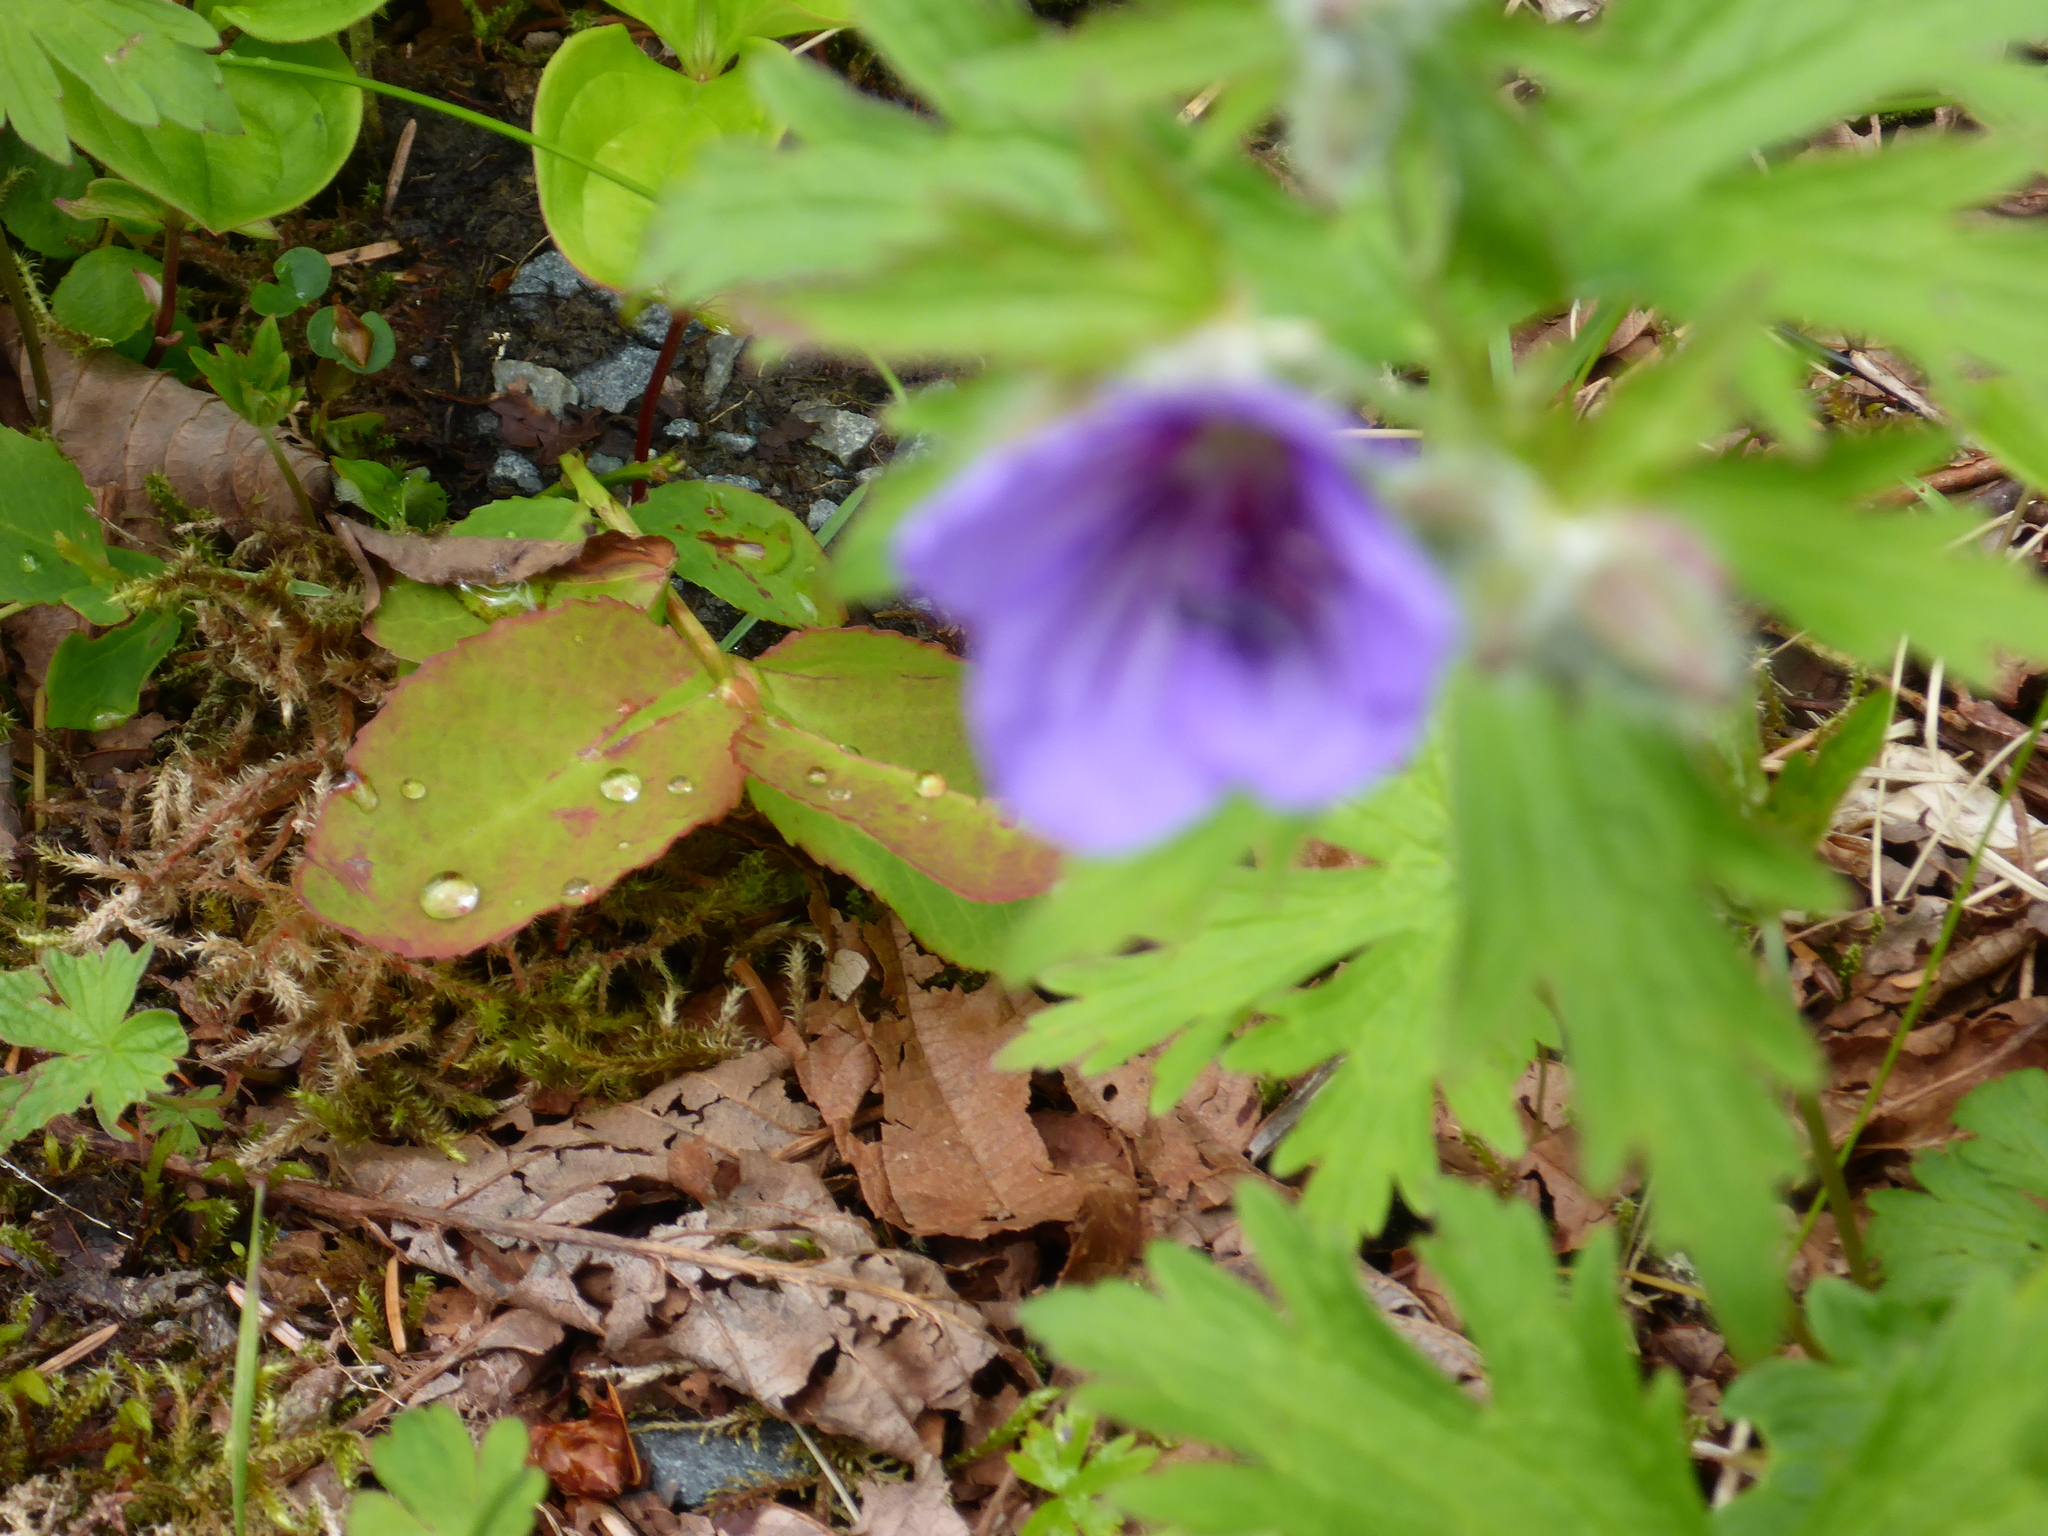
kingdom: Plantae
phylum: Tracheophyta
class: Magnoliopsida
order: Geraniales
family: Geraniaceae
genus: Geranium
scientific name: Geranium erianthum
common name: Northern crane's-bill
